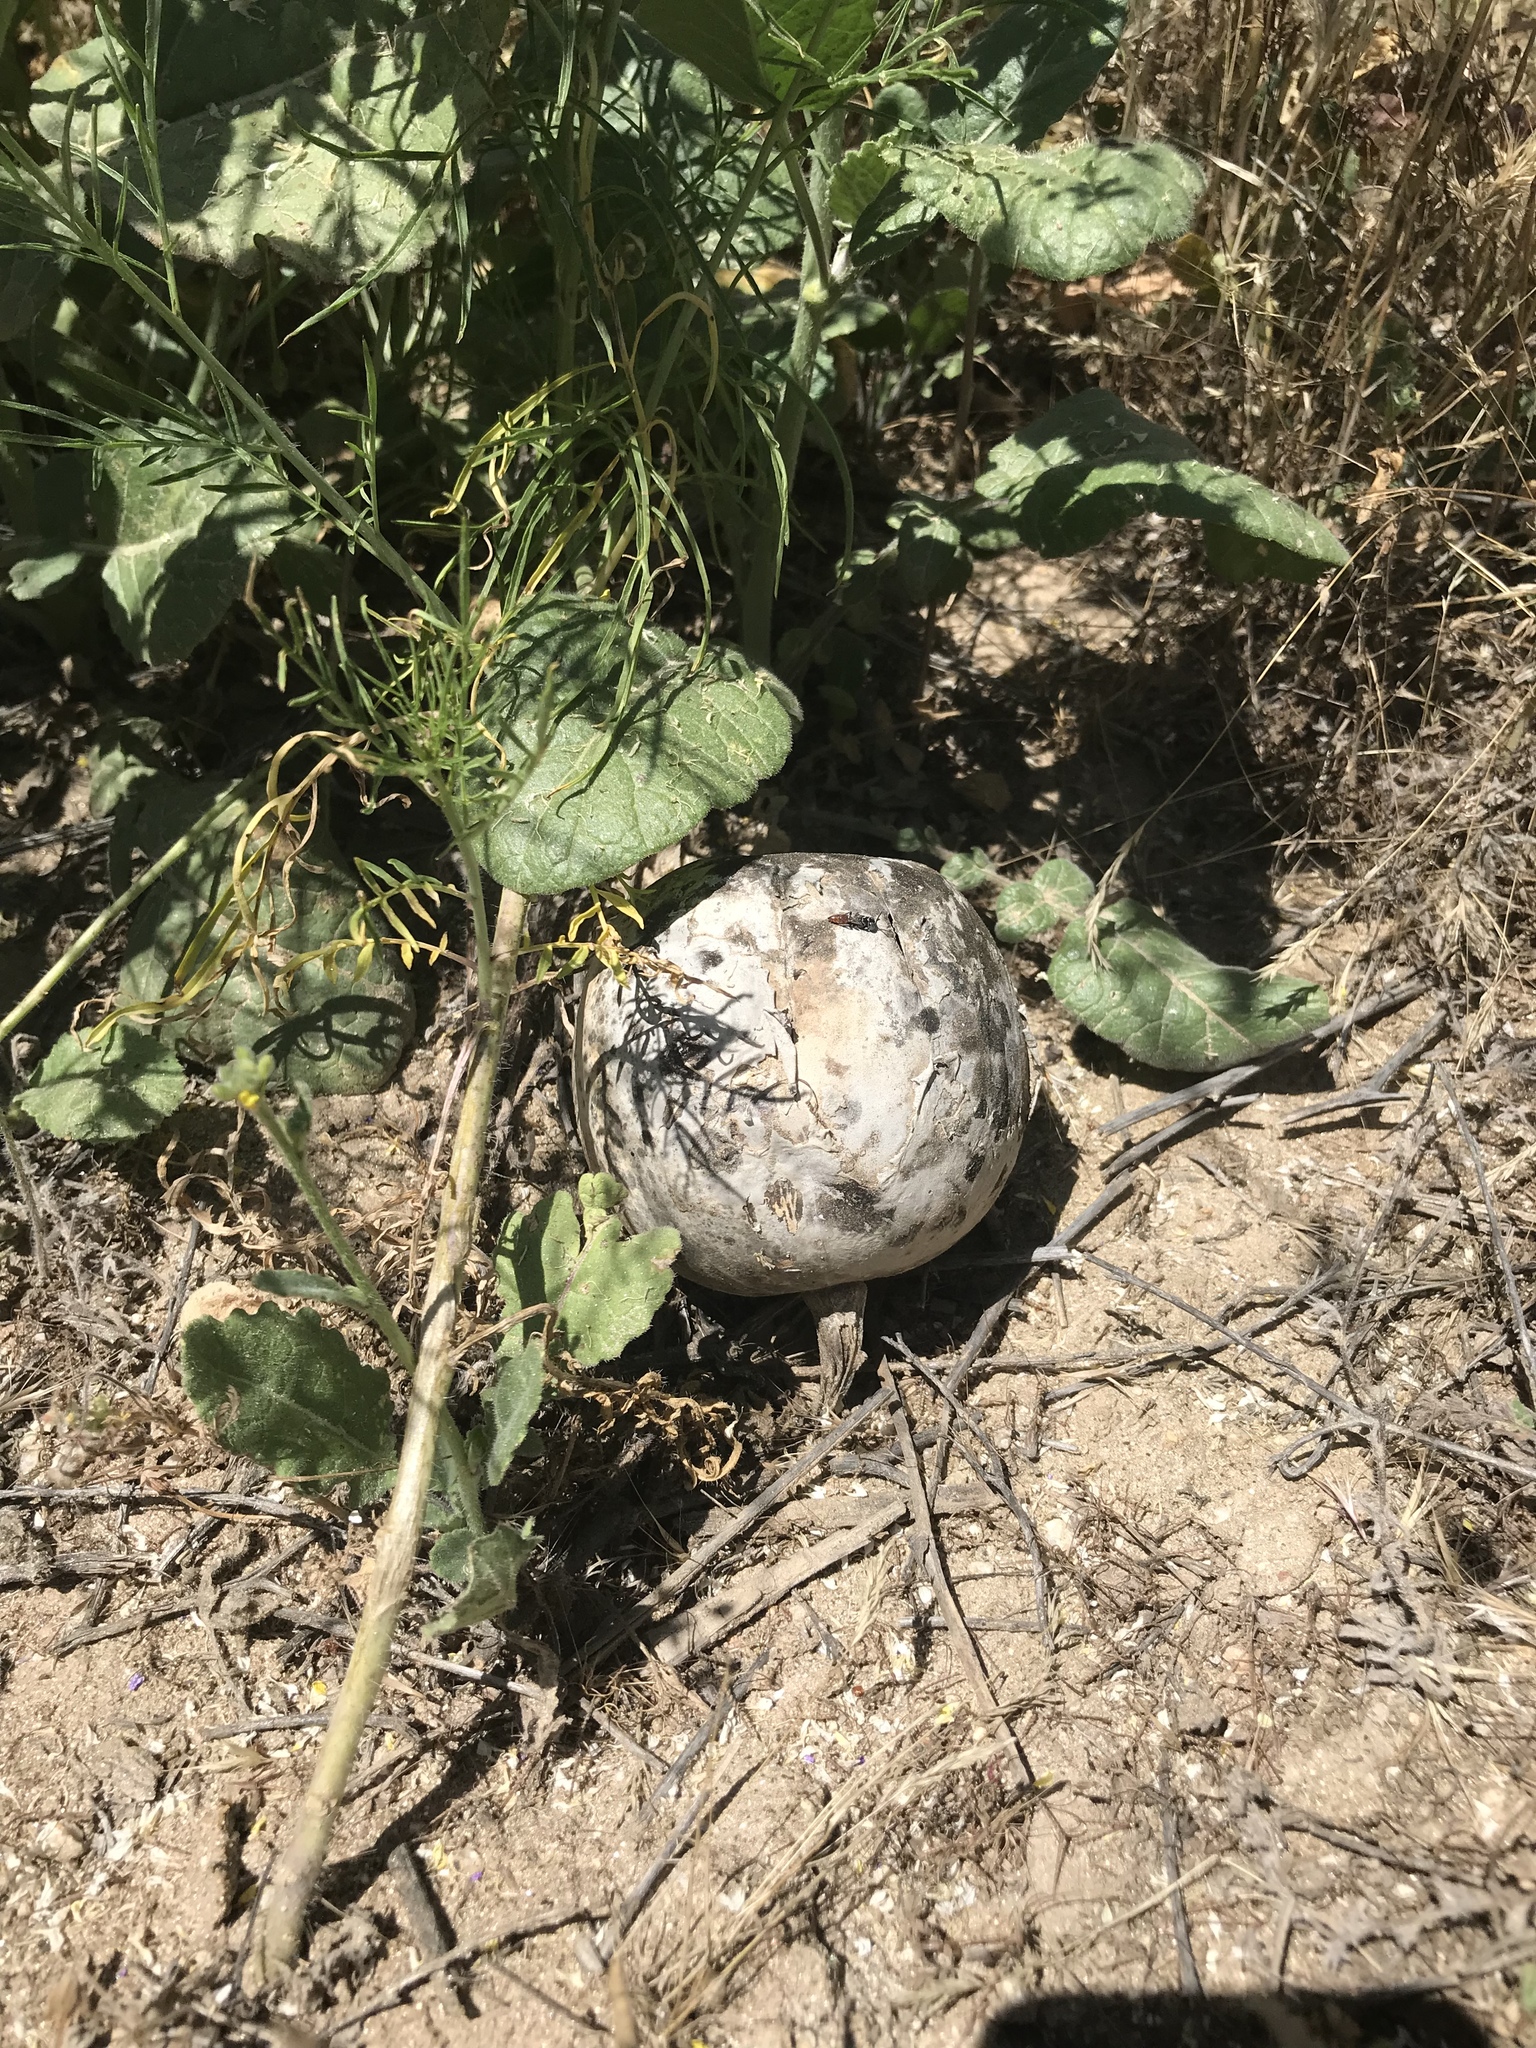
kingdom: Plantae
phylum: Tracheophyta
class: Magnoliopsida
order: Cucurbitales
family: Cucurbitaceae
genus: Cucurbita
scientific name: Cucurbita palmata
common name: Coyote-melon
